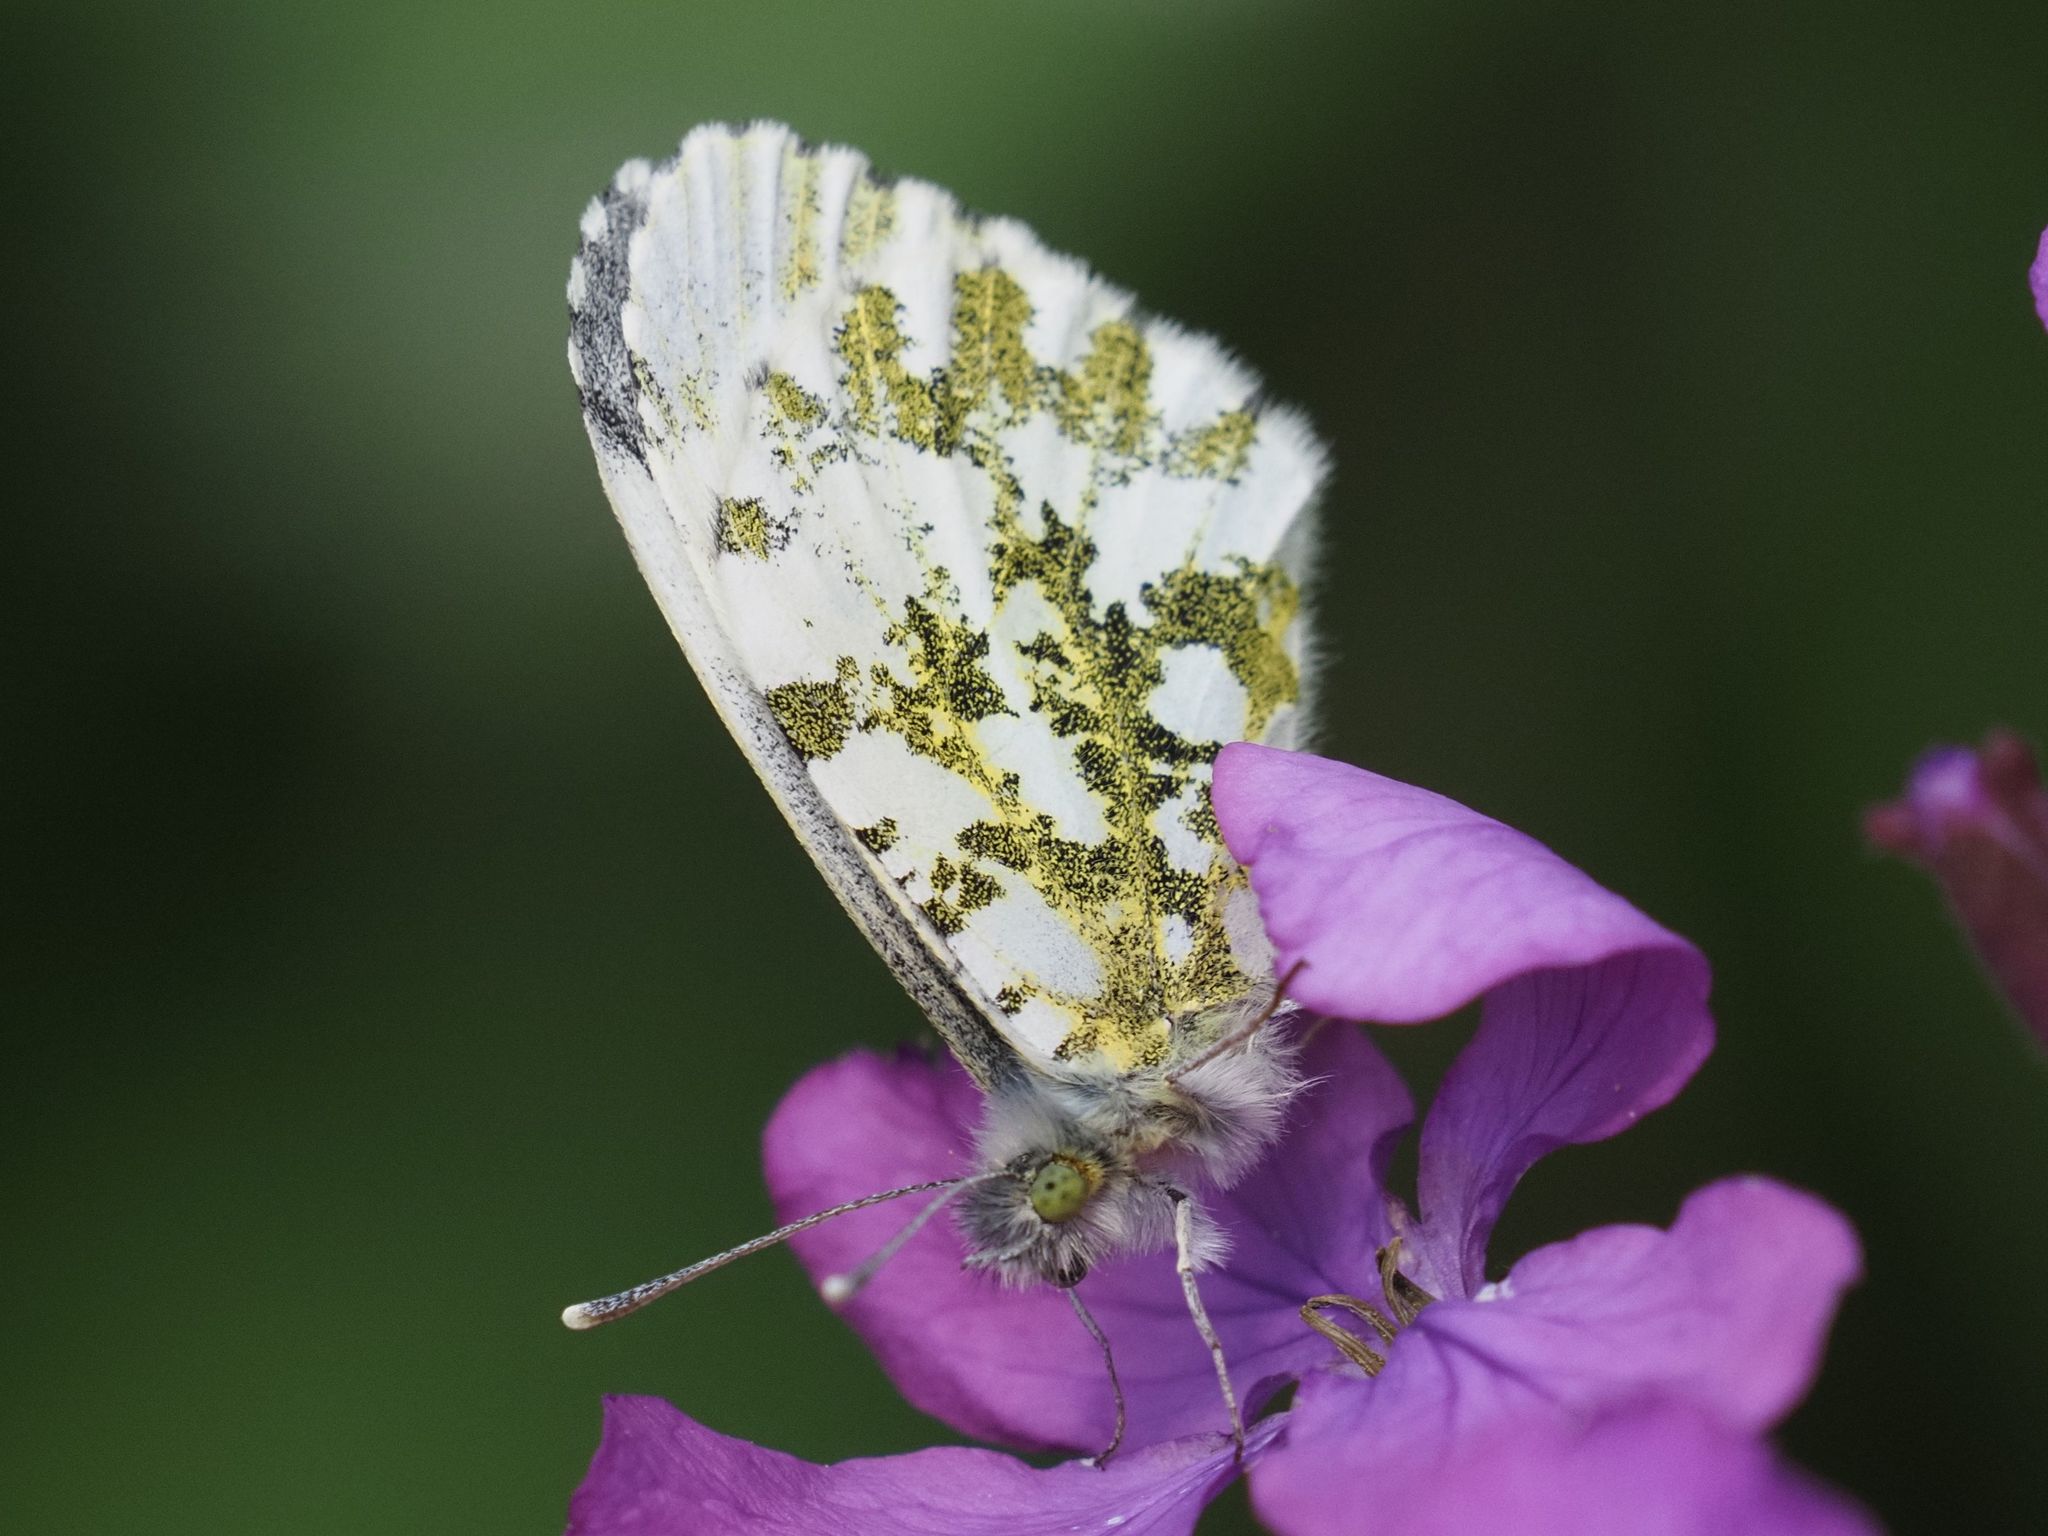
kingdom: Animalia
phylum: Arthropoda
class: Insecta
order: Lepidoptera
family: Pieridae
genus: Anthocharis
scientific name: Anthocharis cardamines
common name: Orange-tip
